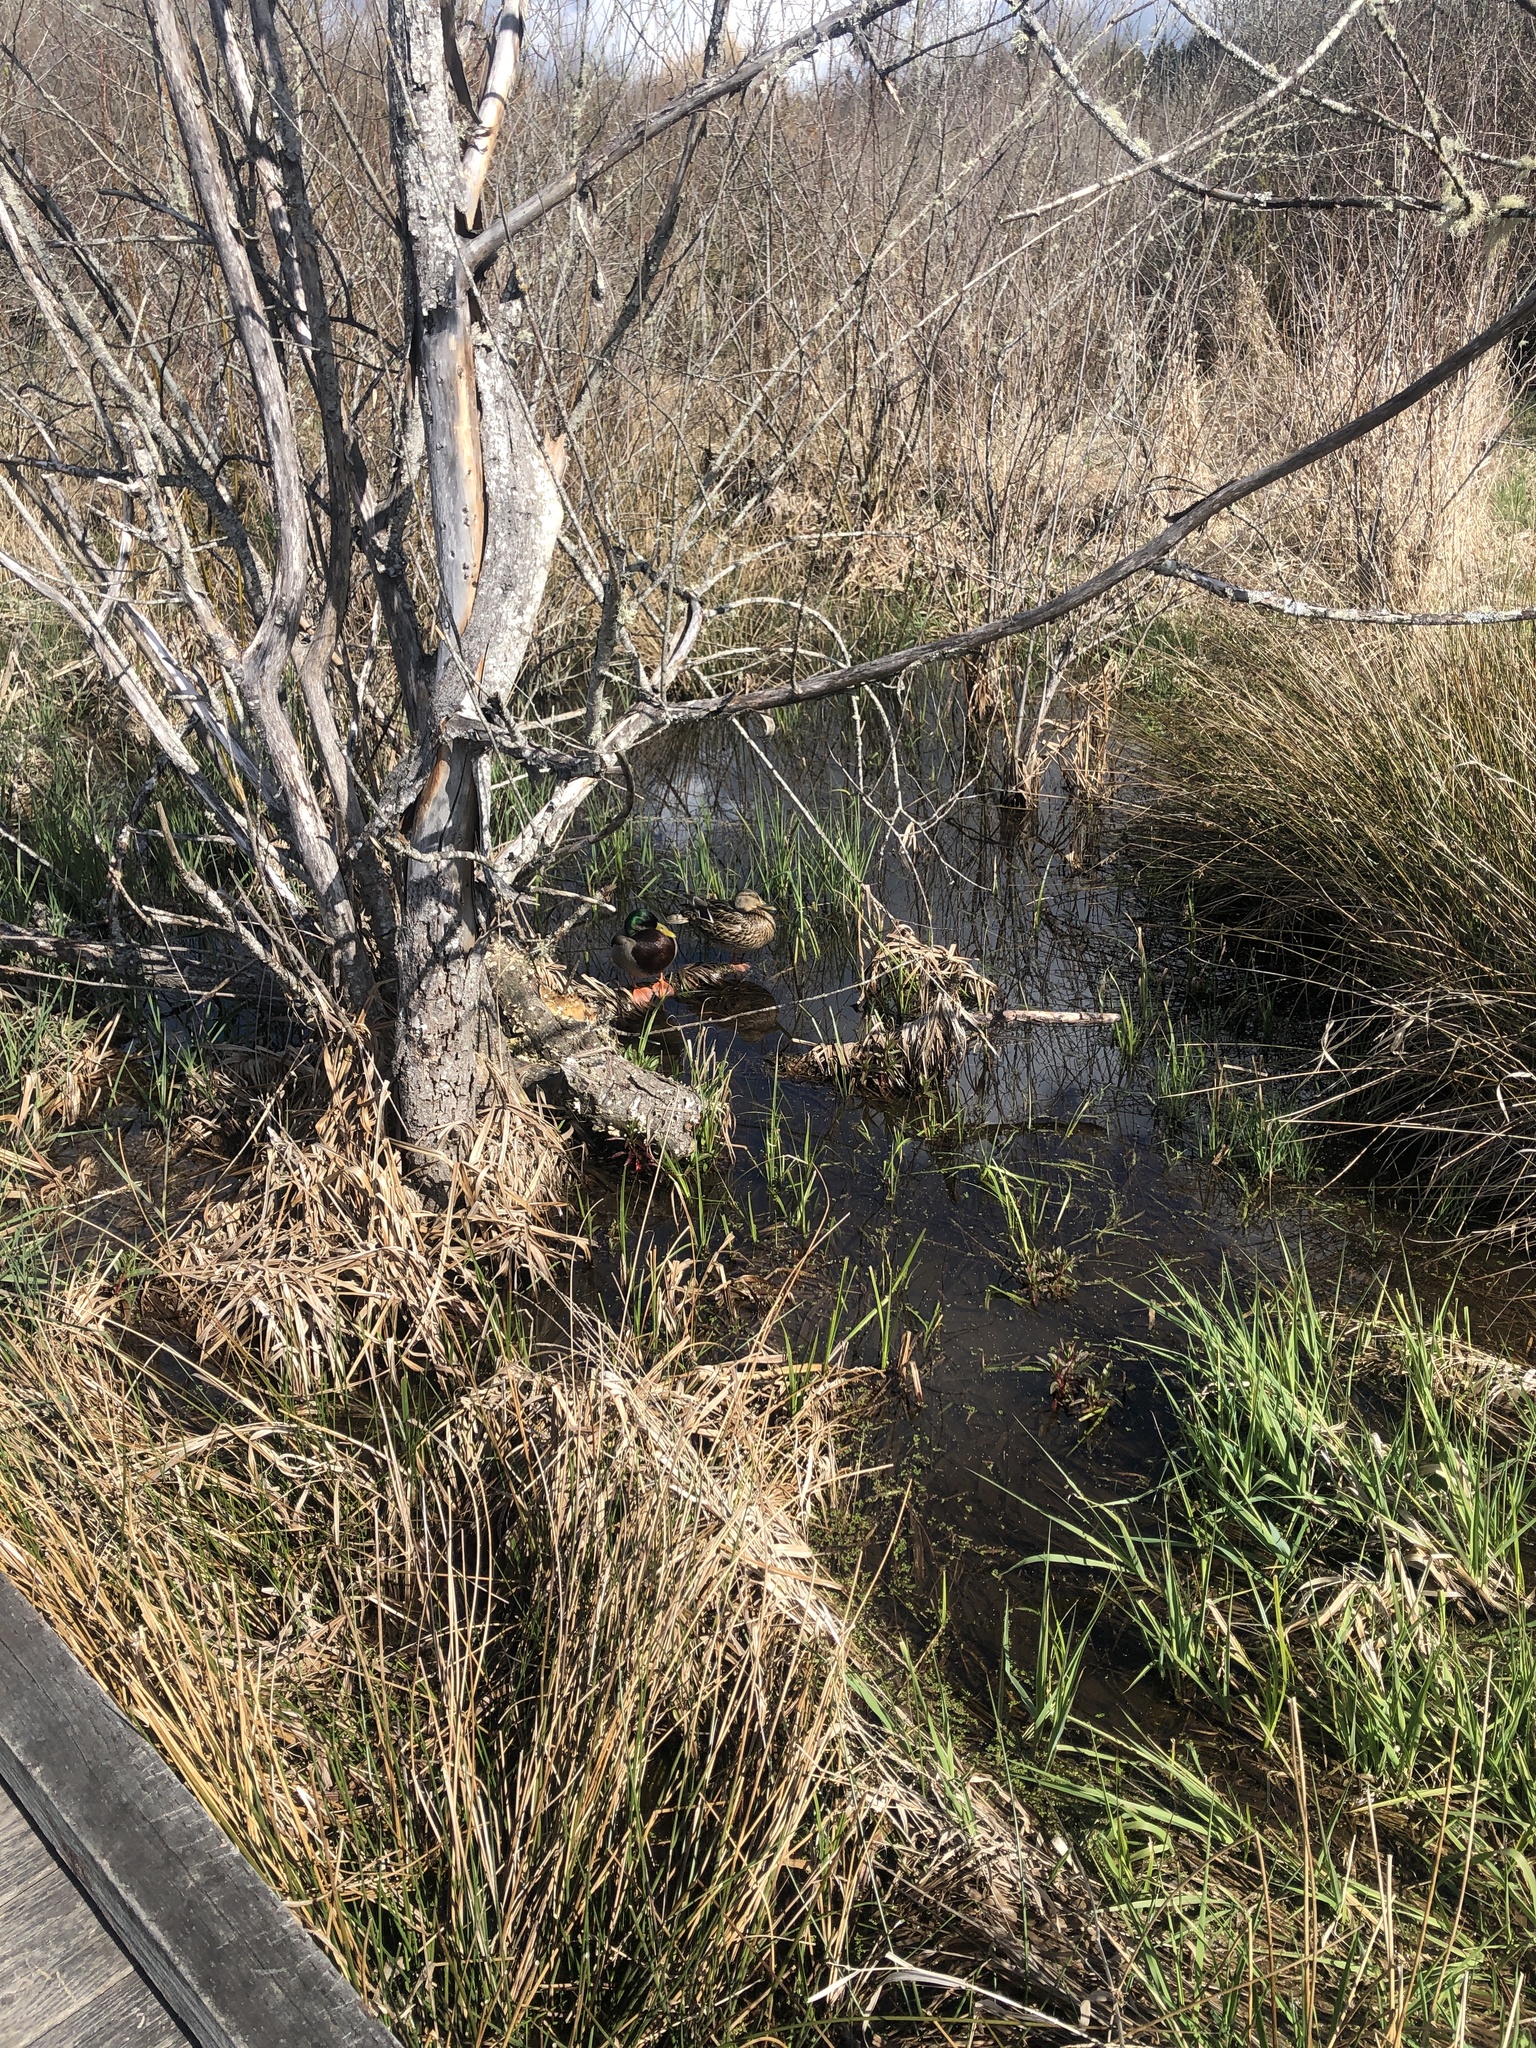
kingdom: Animalia
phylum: Chordata
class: Aves
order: Anseriformes
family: Anatidae
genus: Anas
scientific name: Anas platyrhynchos
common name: Mallard
